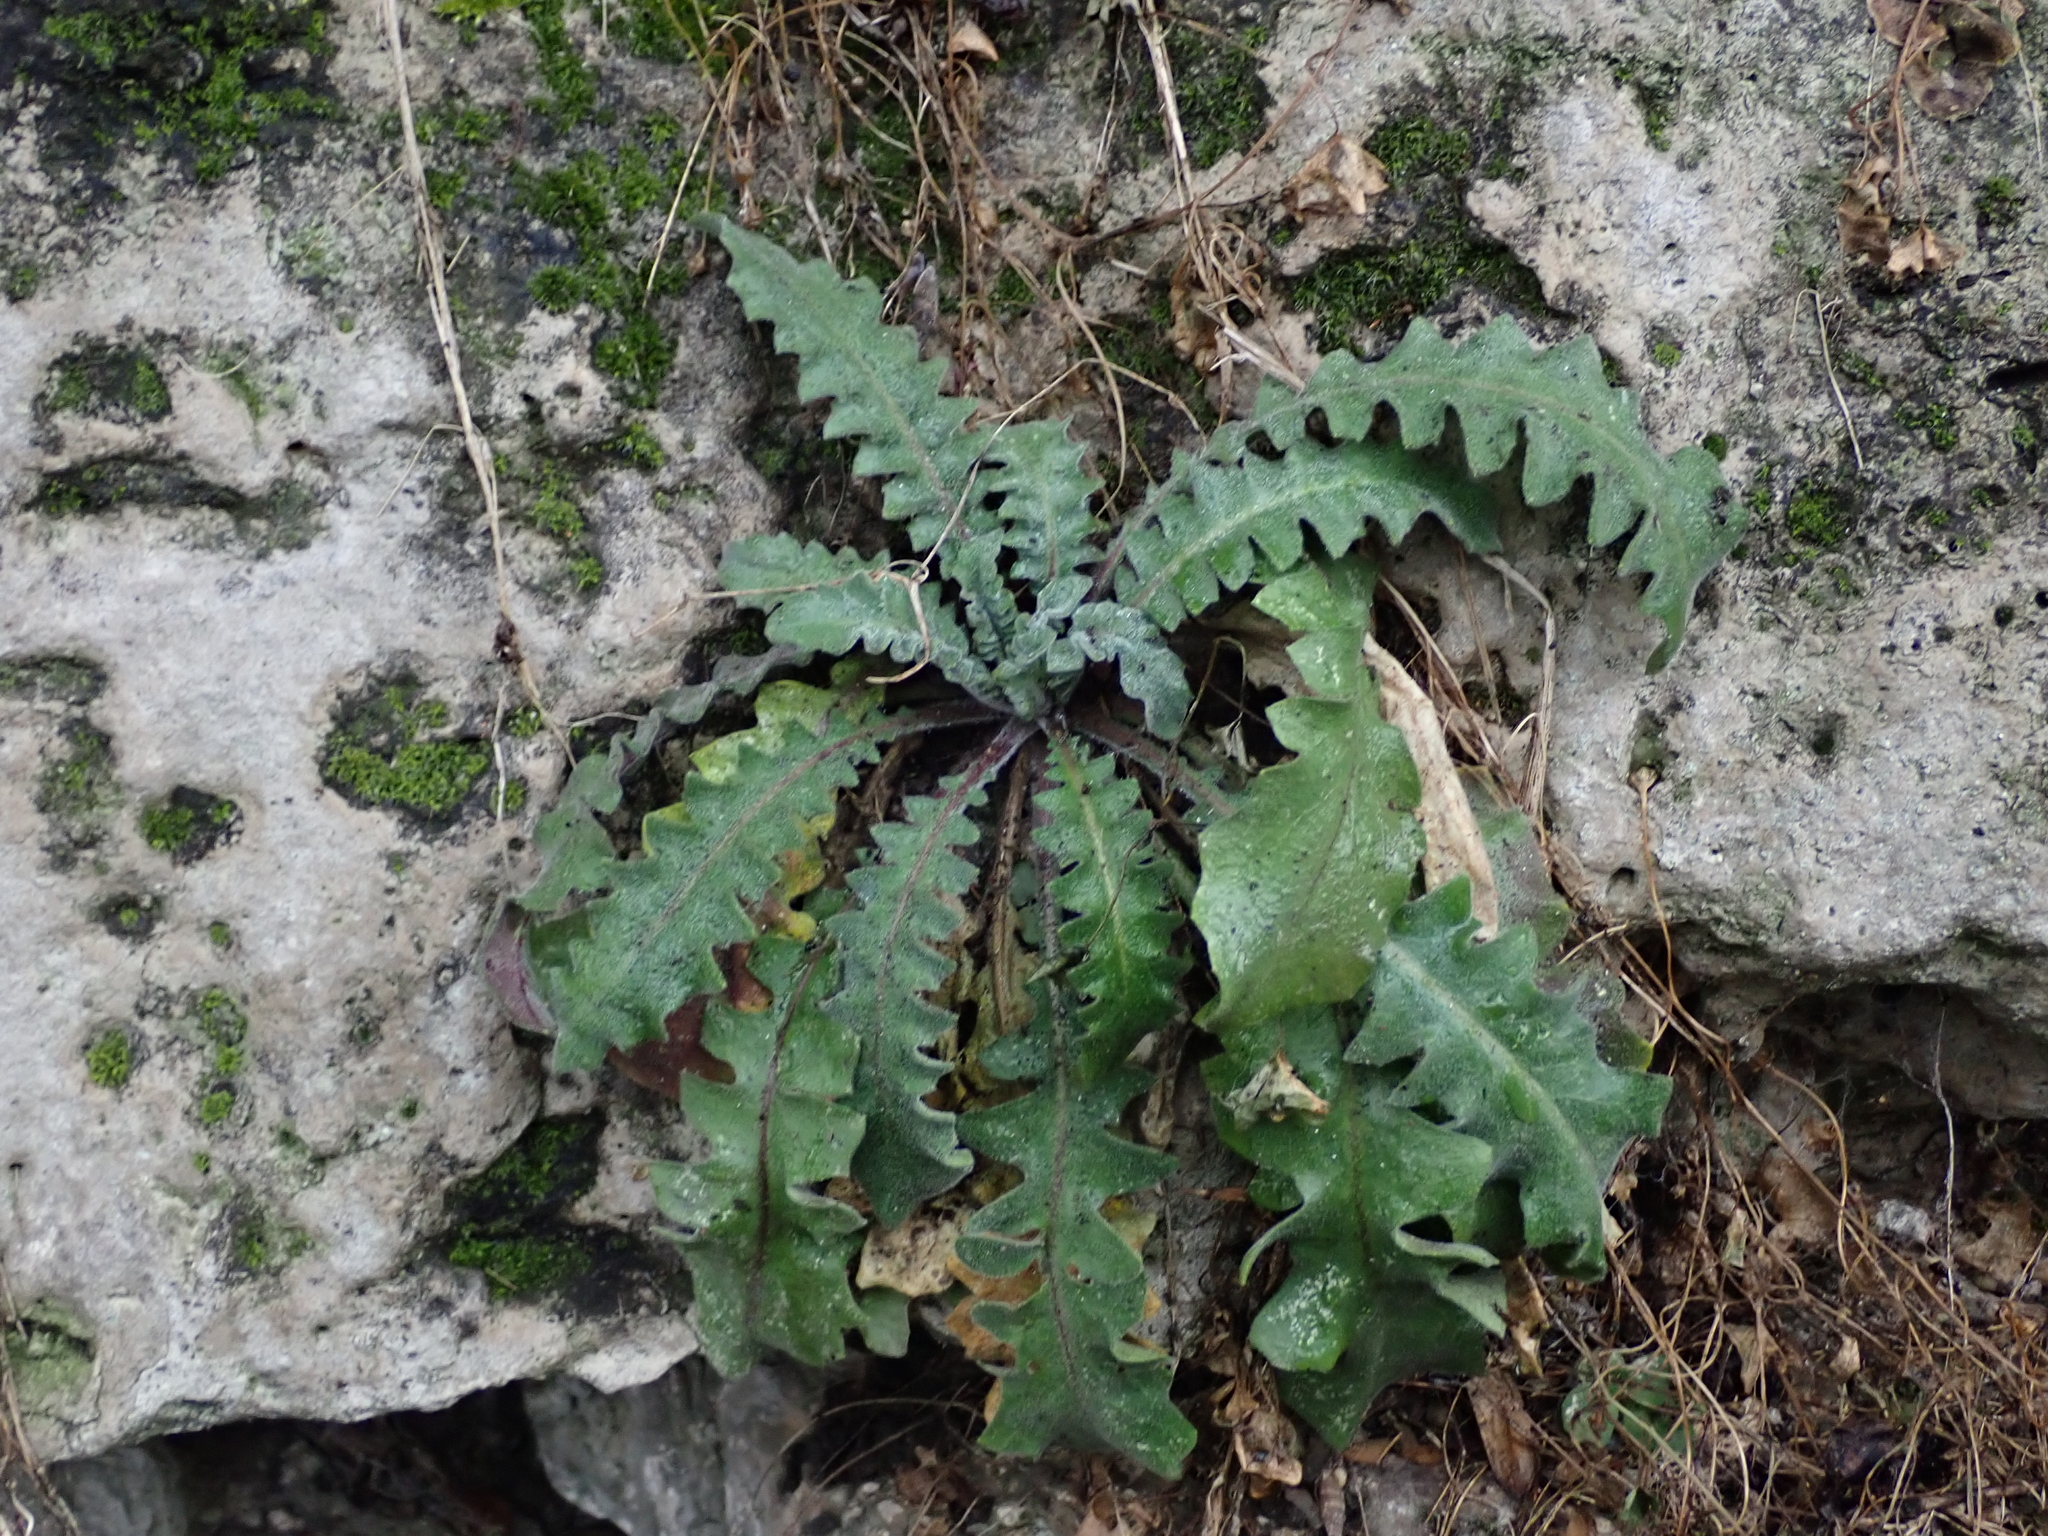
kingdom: Plantae
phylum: Tracheophyta
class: Magnoliopsida
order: Brassicales
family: Brassicaceae
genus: Arabidopsis
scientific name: Arabidopsis arenosa
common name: Sand rock-cress
